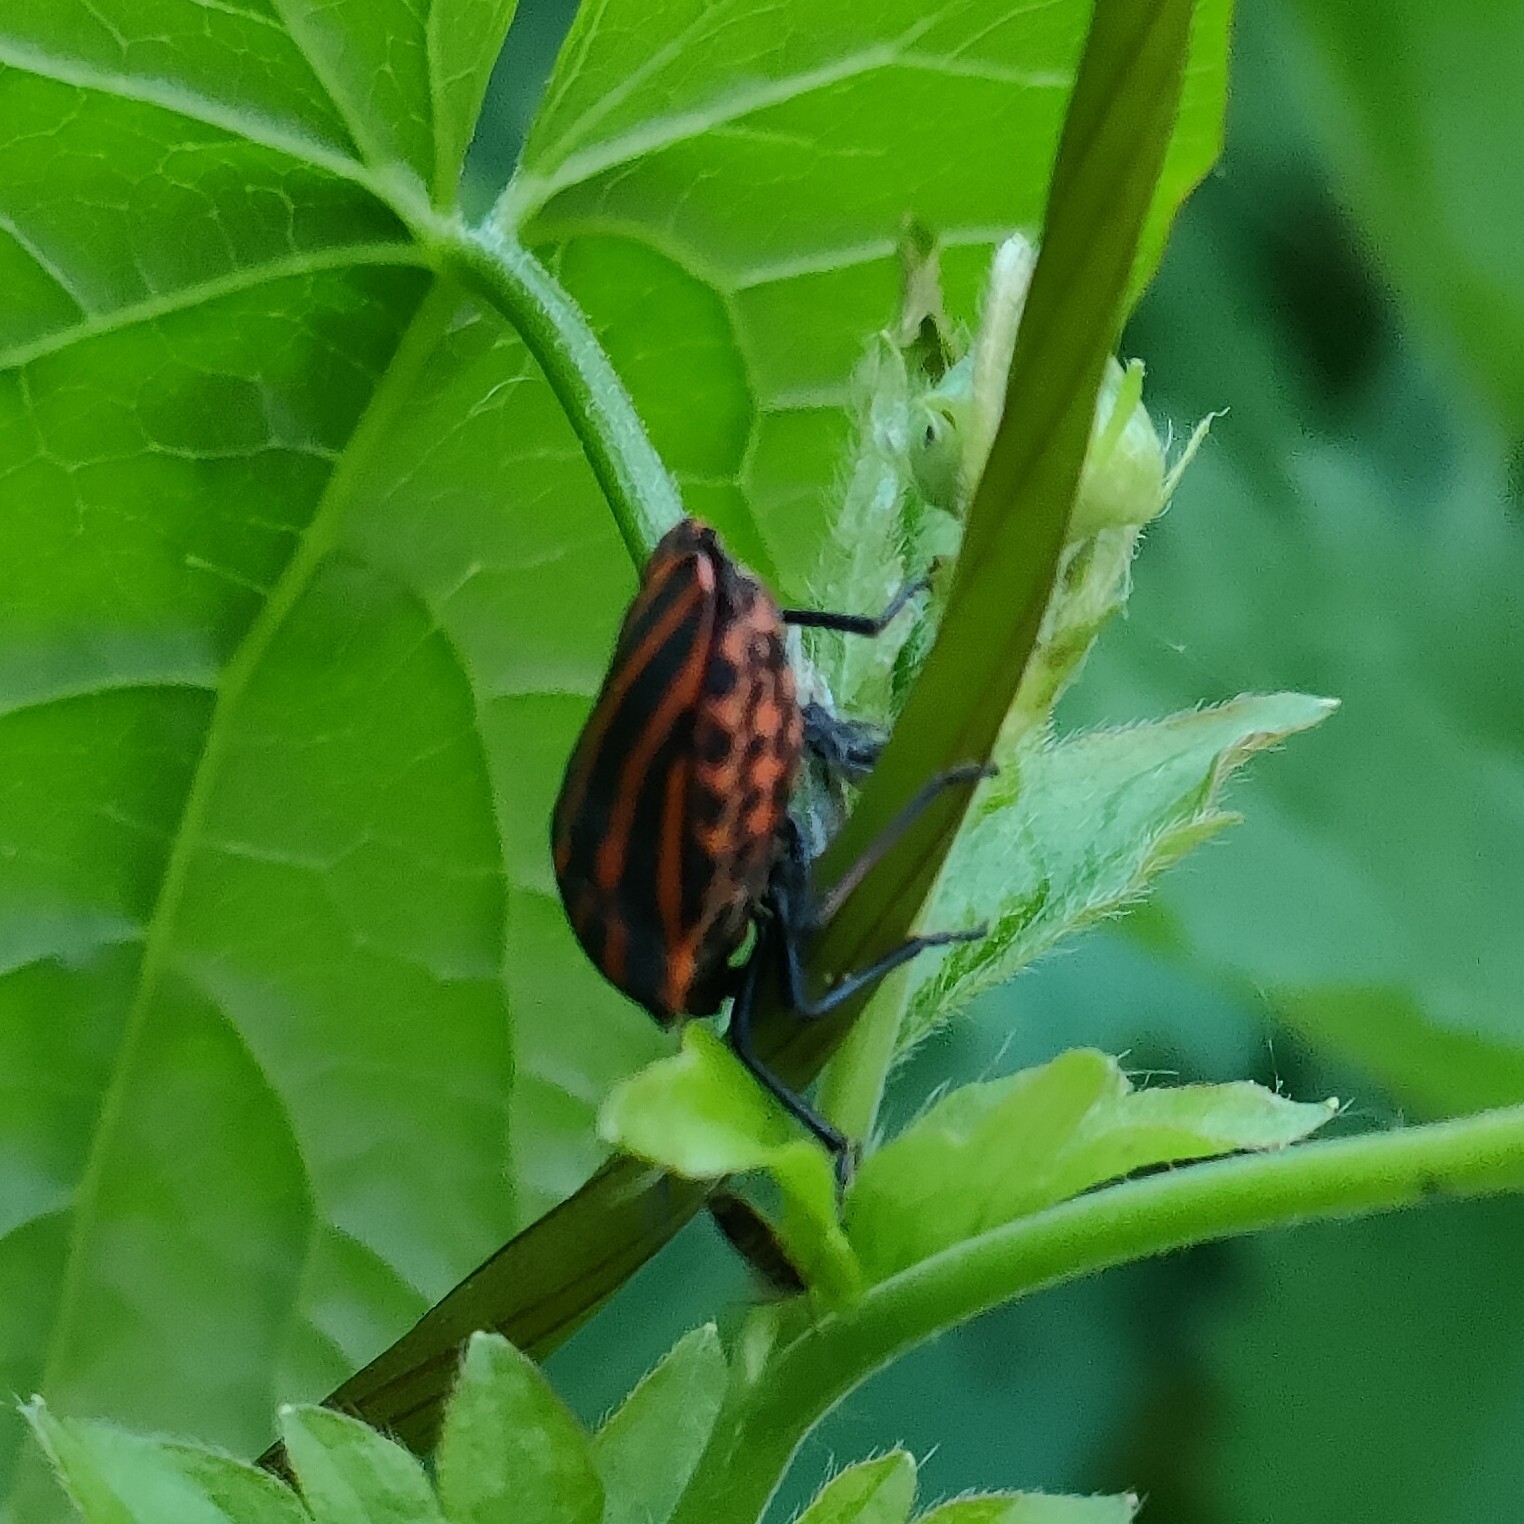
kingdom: Animalia
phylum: Arthropoda
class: Insecta
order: Hemiptera
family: Pentatomidae
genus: Graphosoma
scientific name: Graphosoma italicum
